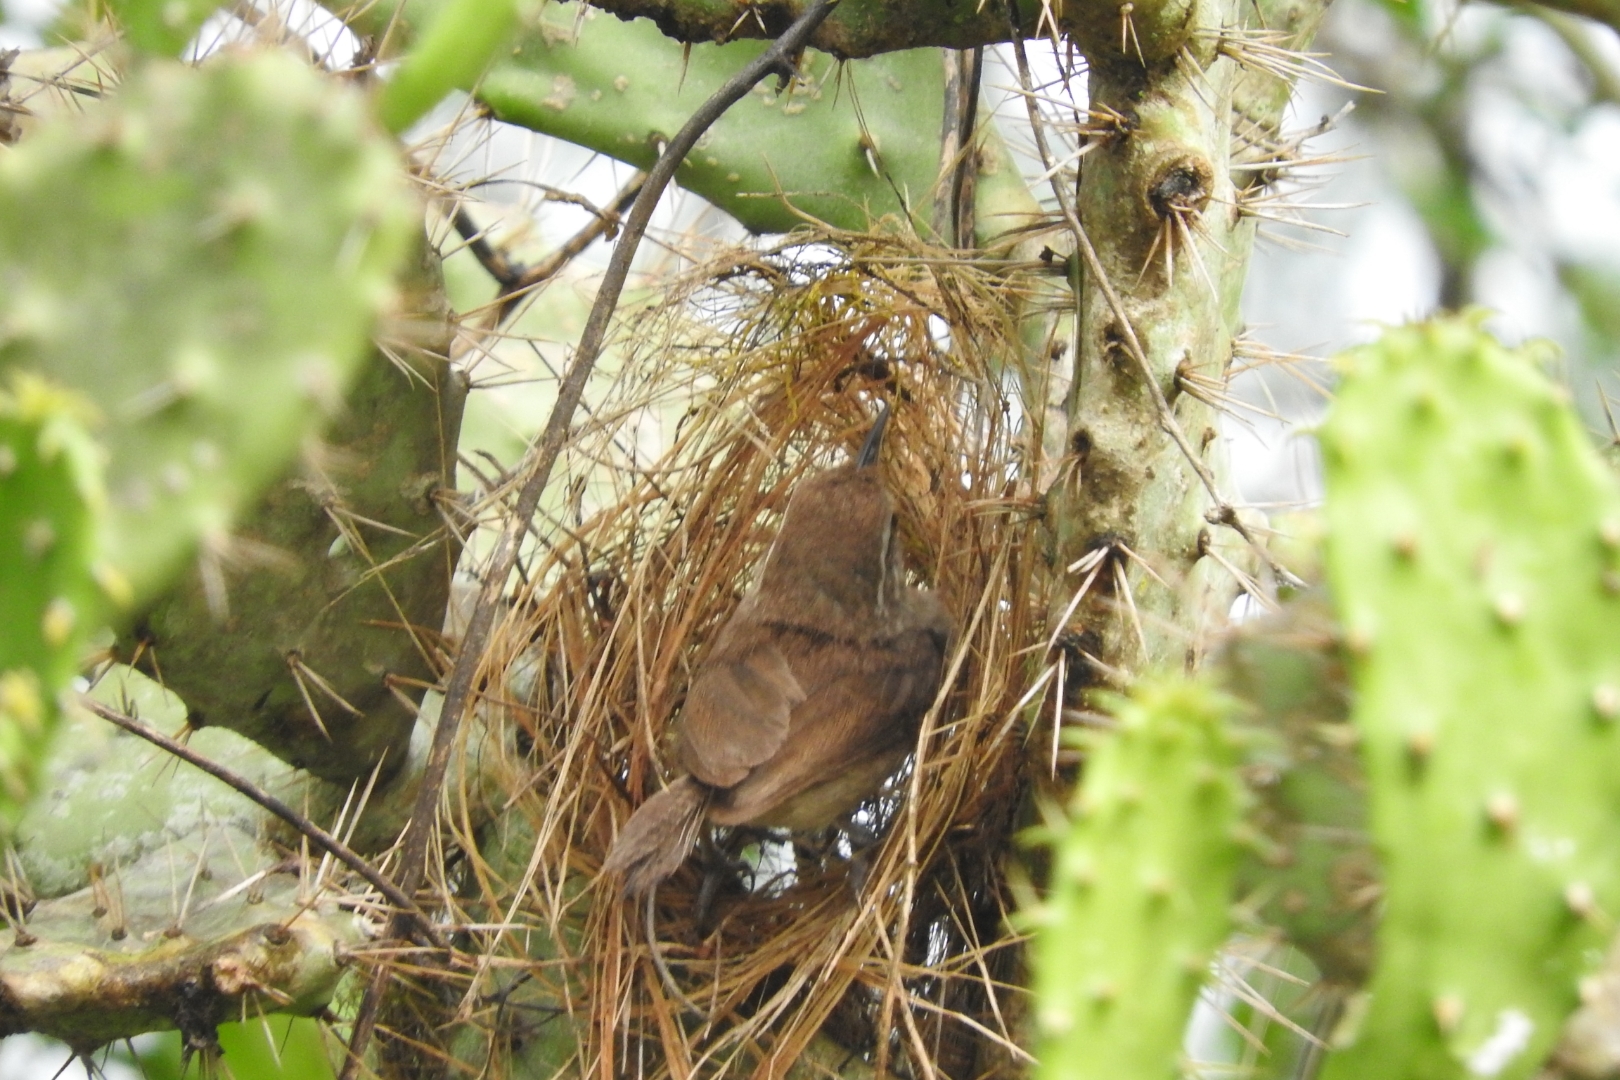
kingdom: Animalia
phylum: Chordata
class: Aves
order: Passeriformes
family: Troglodytidae
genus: Uropsila
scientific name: Uropsila leucogastra
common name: White-bellied wren
